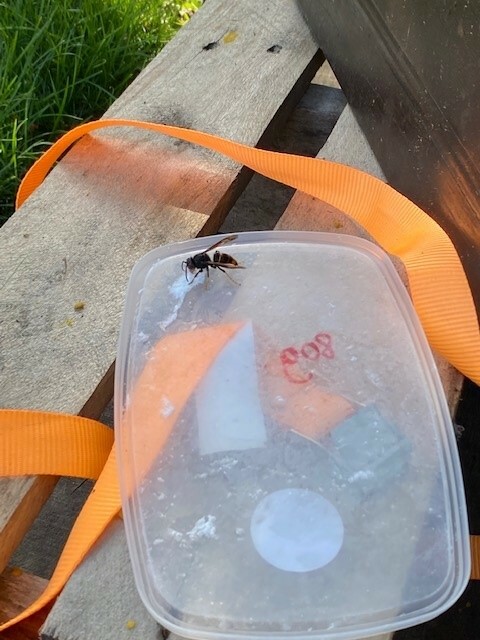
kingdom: Animalia
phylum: Arthropoda
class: Insecta
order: Hymenoptera
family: Vespidae
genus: Vespa
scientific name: Vespa velutina
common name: Asian hornet
